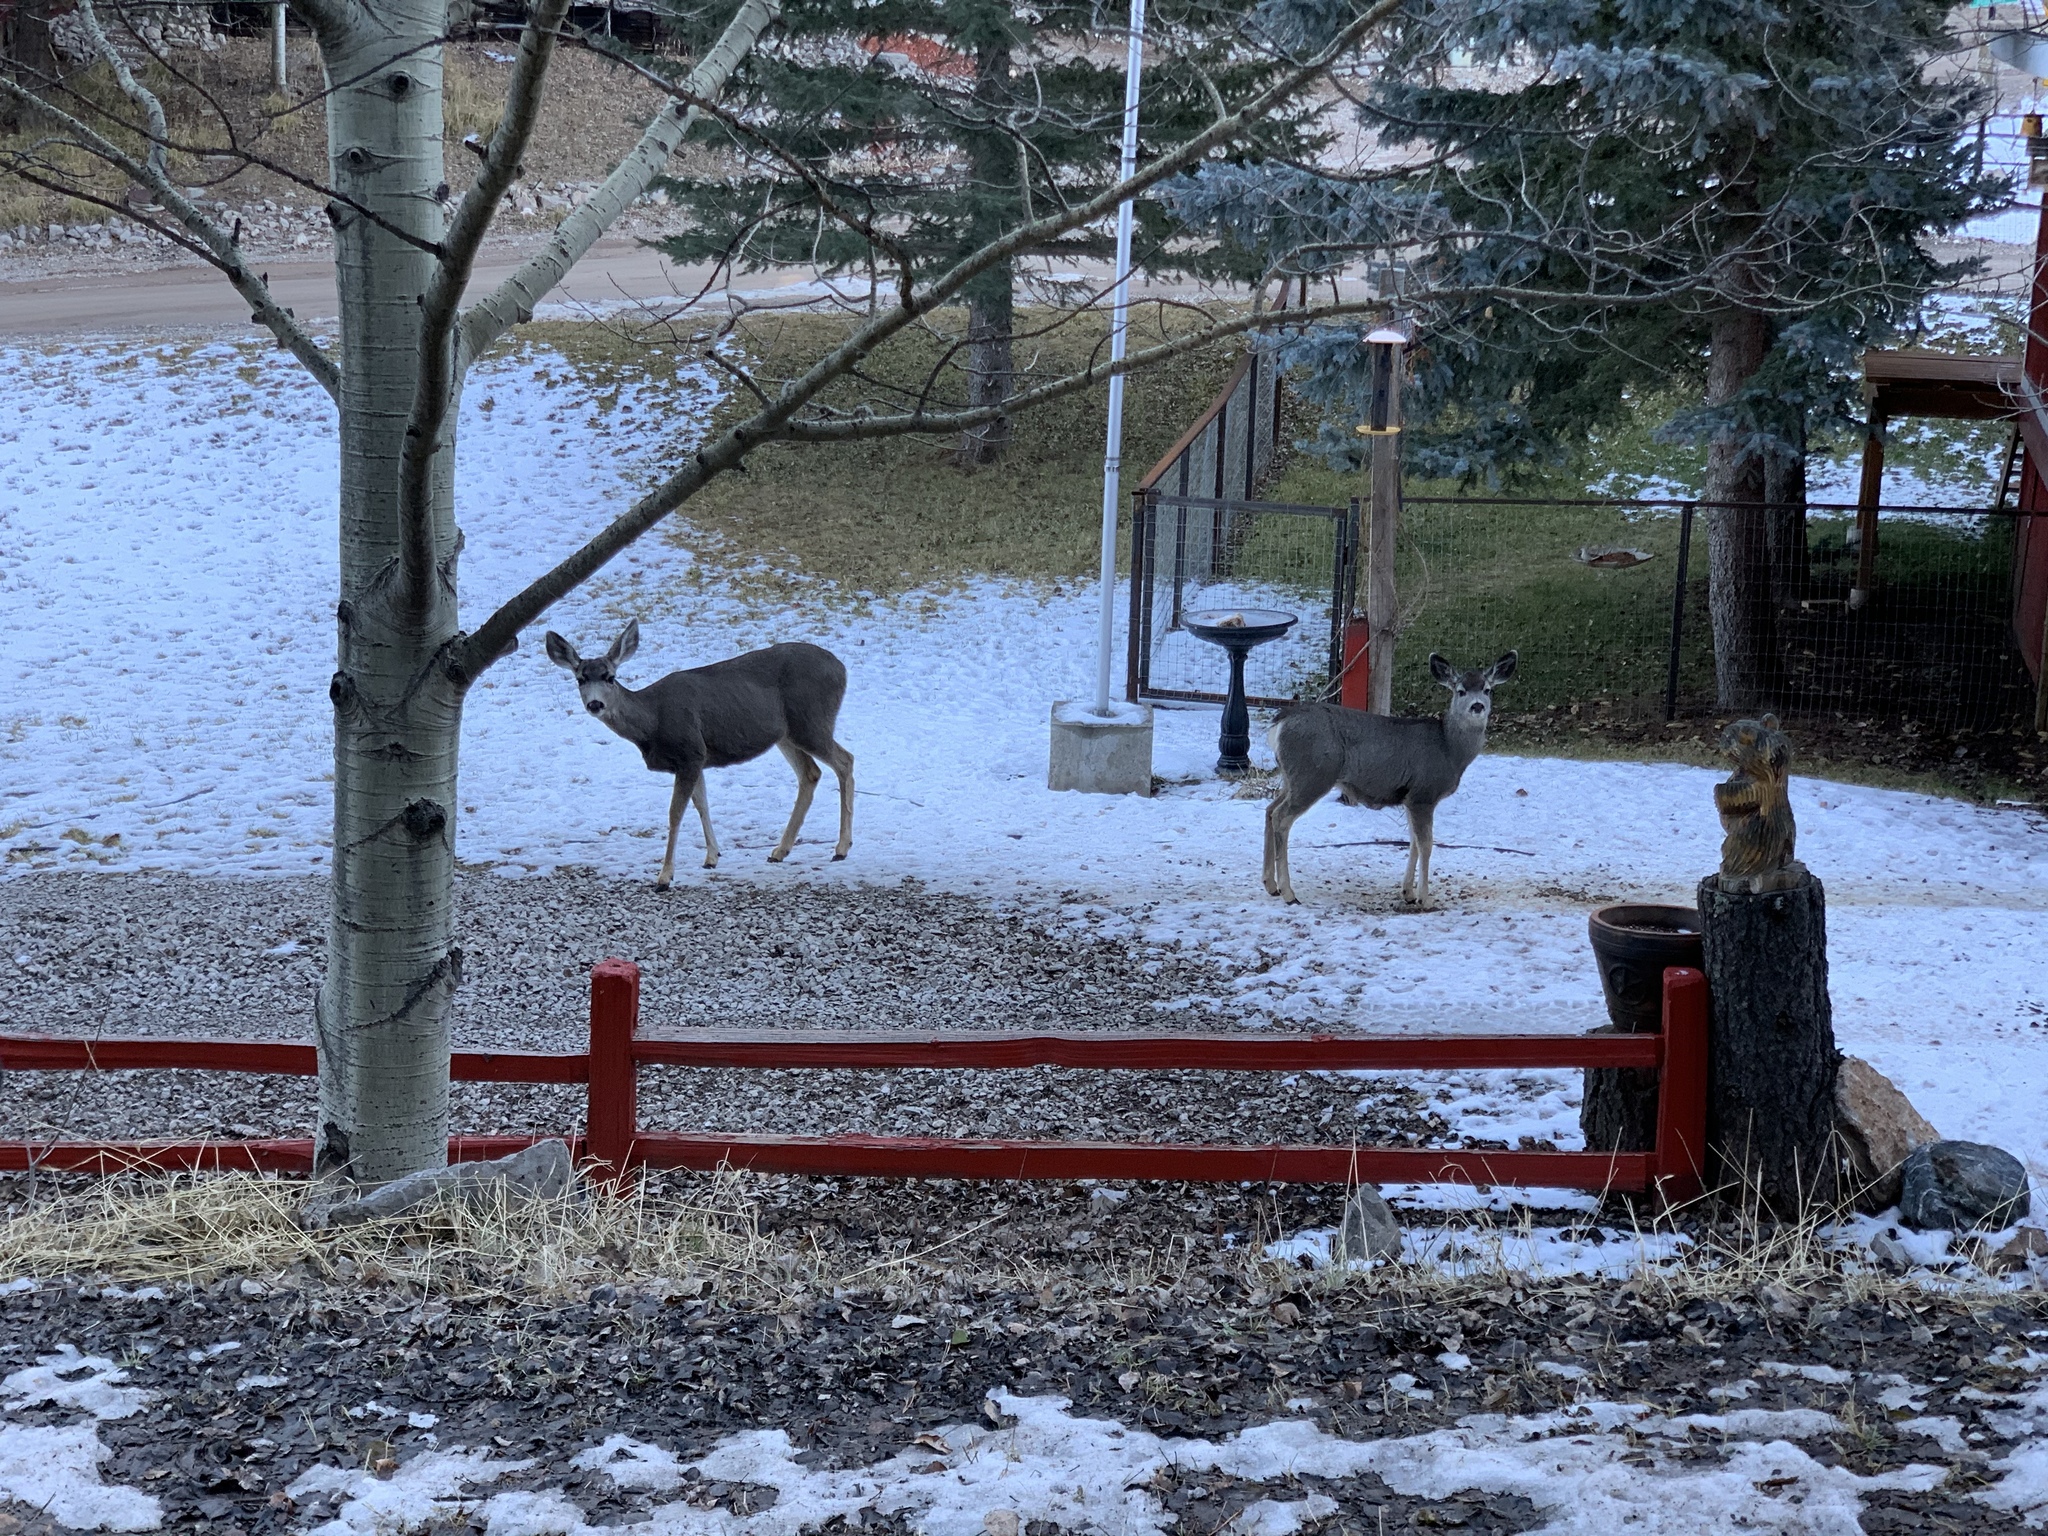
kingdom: Animalia
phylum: Chordata
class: Mammalia
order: Artiodactyla
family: Cervidae
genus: Odocoileus
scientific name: Odocoileus hemionus
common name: Mule deer
